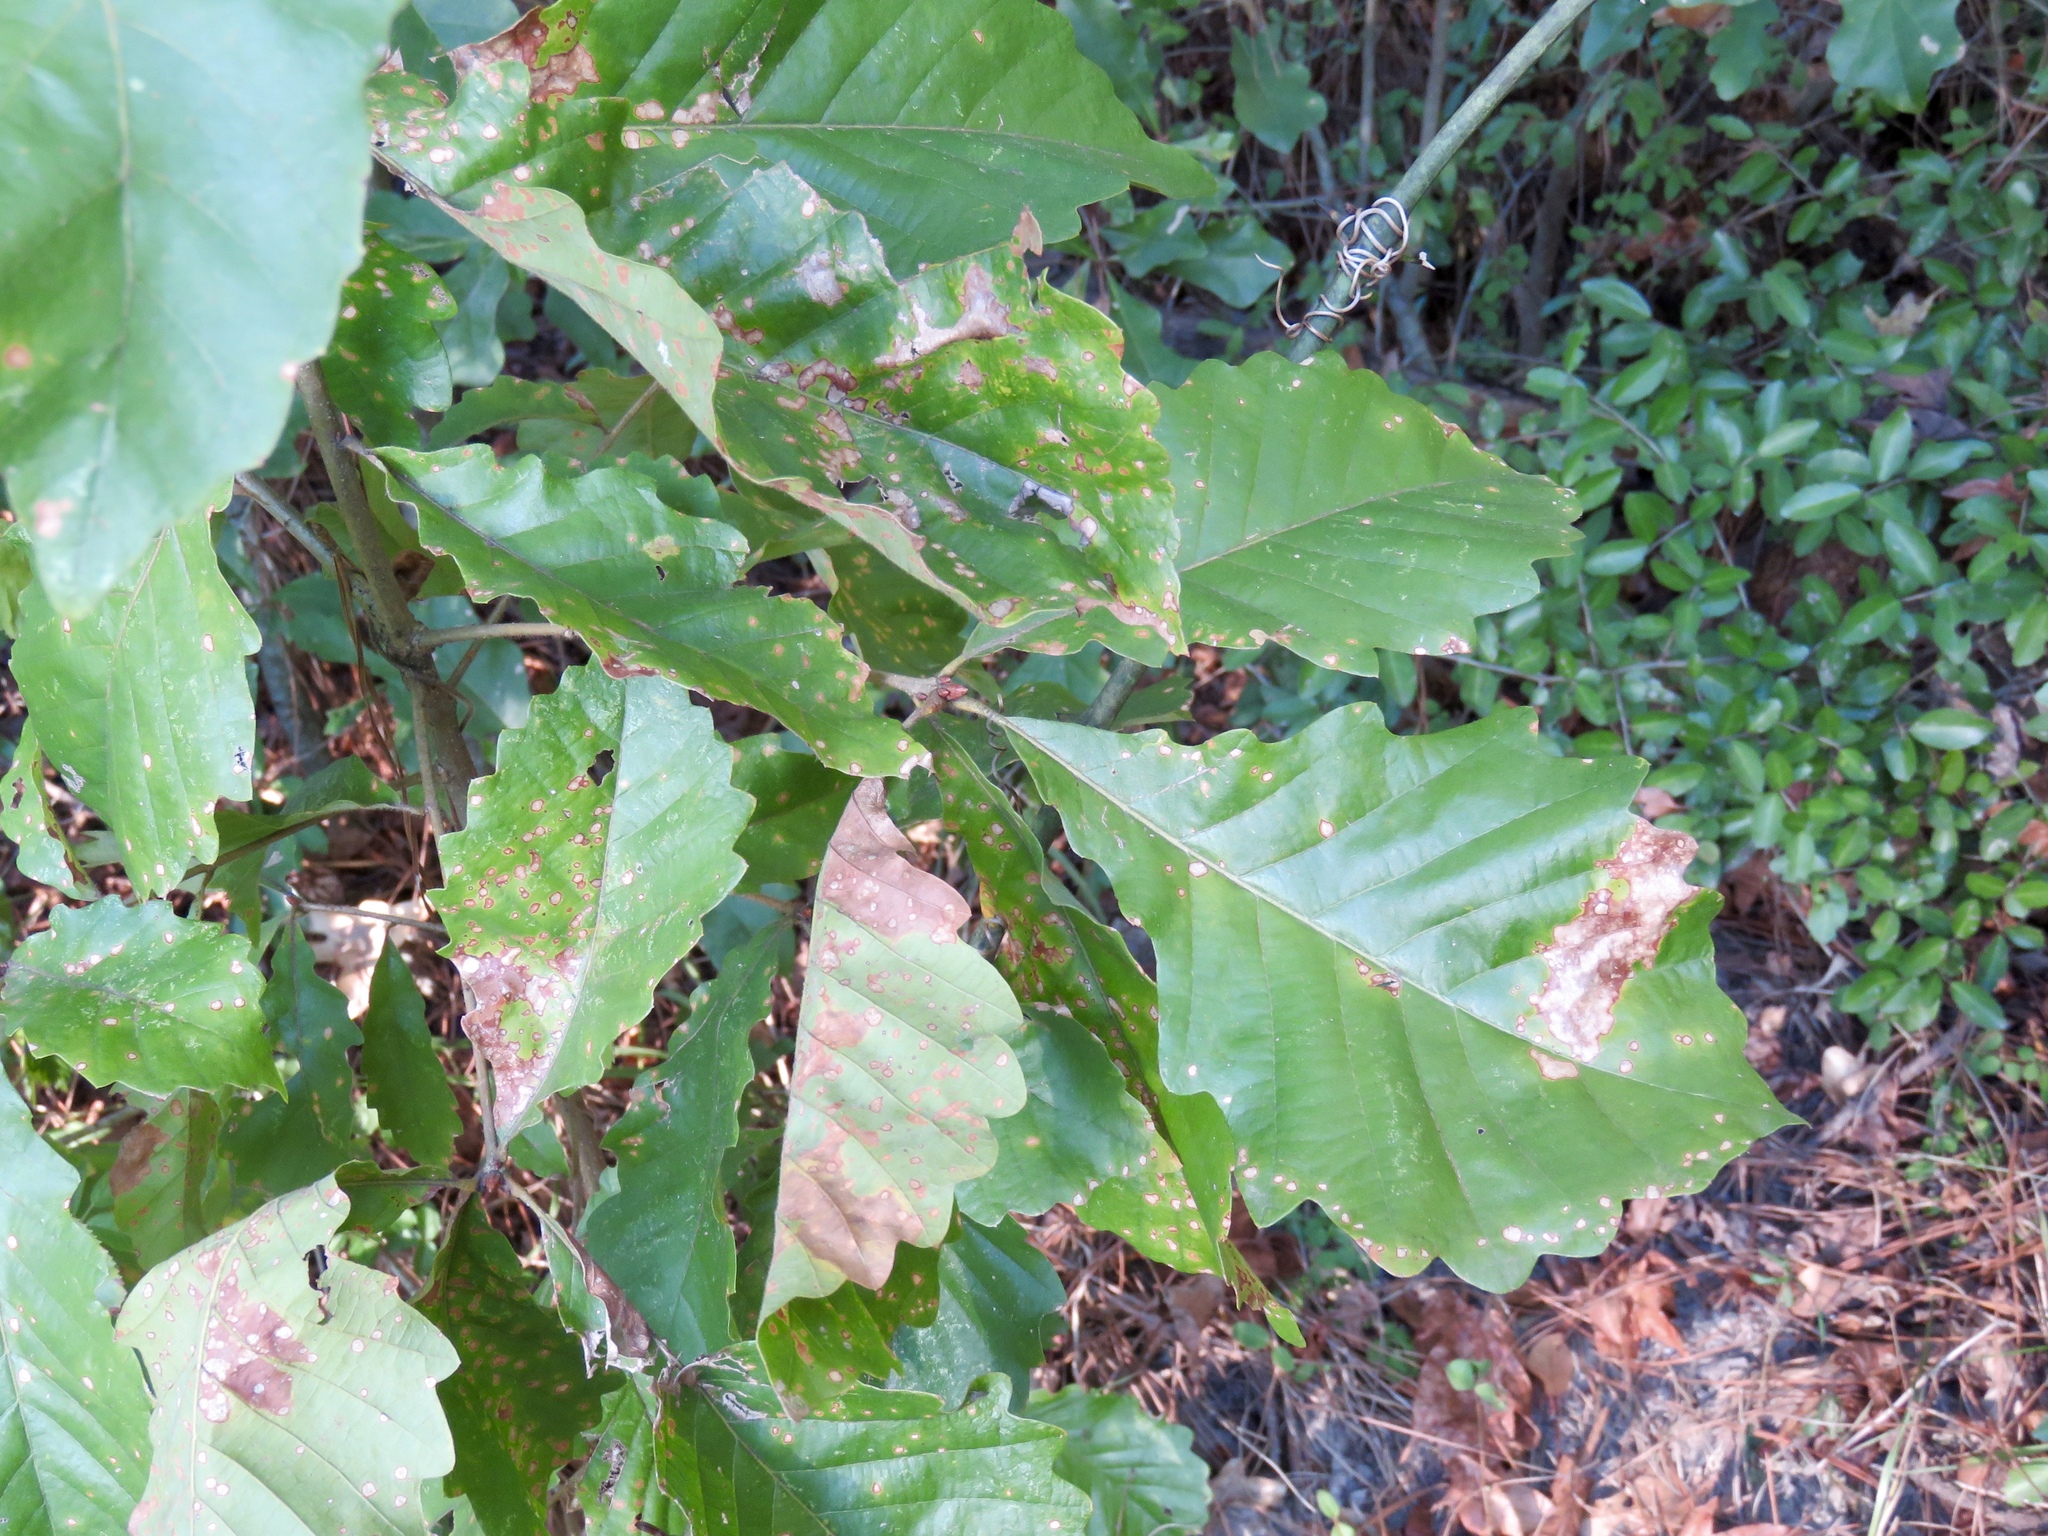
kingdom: Plantae
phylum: Tracheophyta
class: Magnoliopsida
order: Fagales
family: Fagaceae
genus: Quercus
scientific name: Quercus michauxii
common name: Swamp chestnut oak
